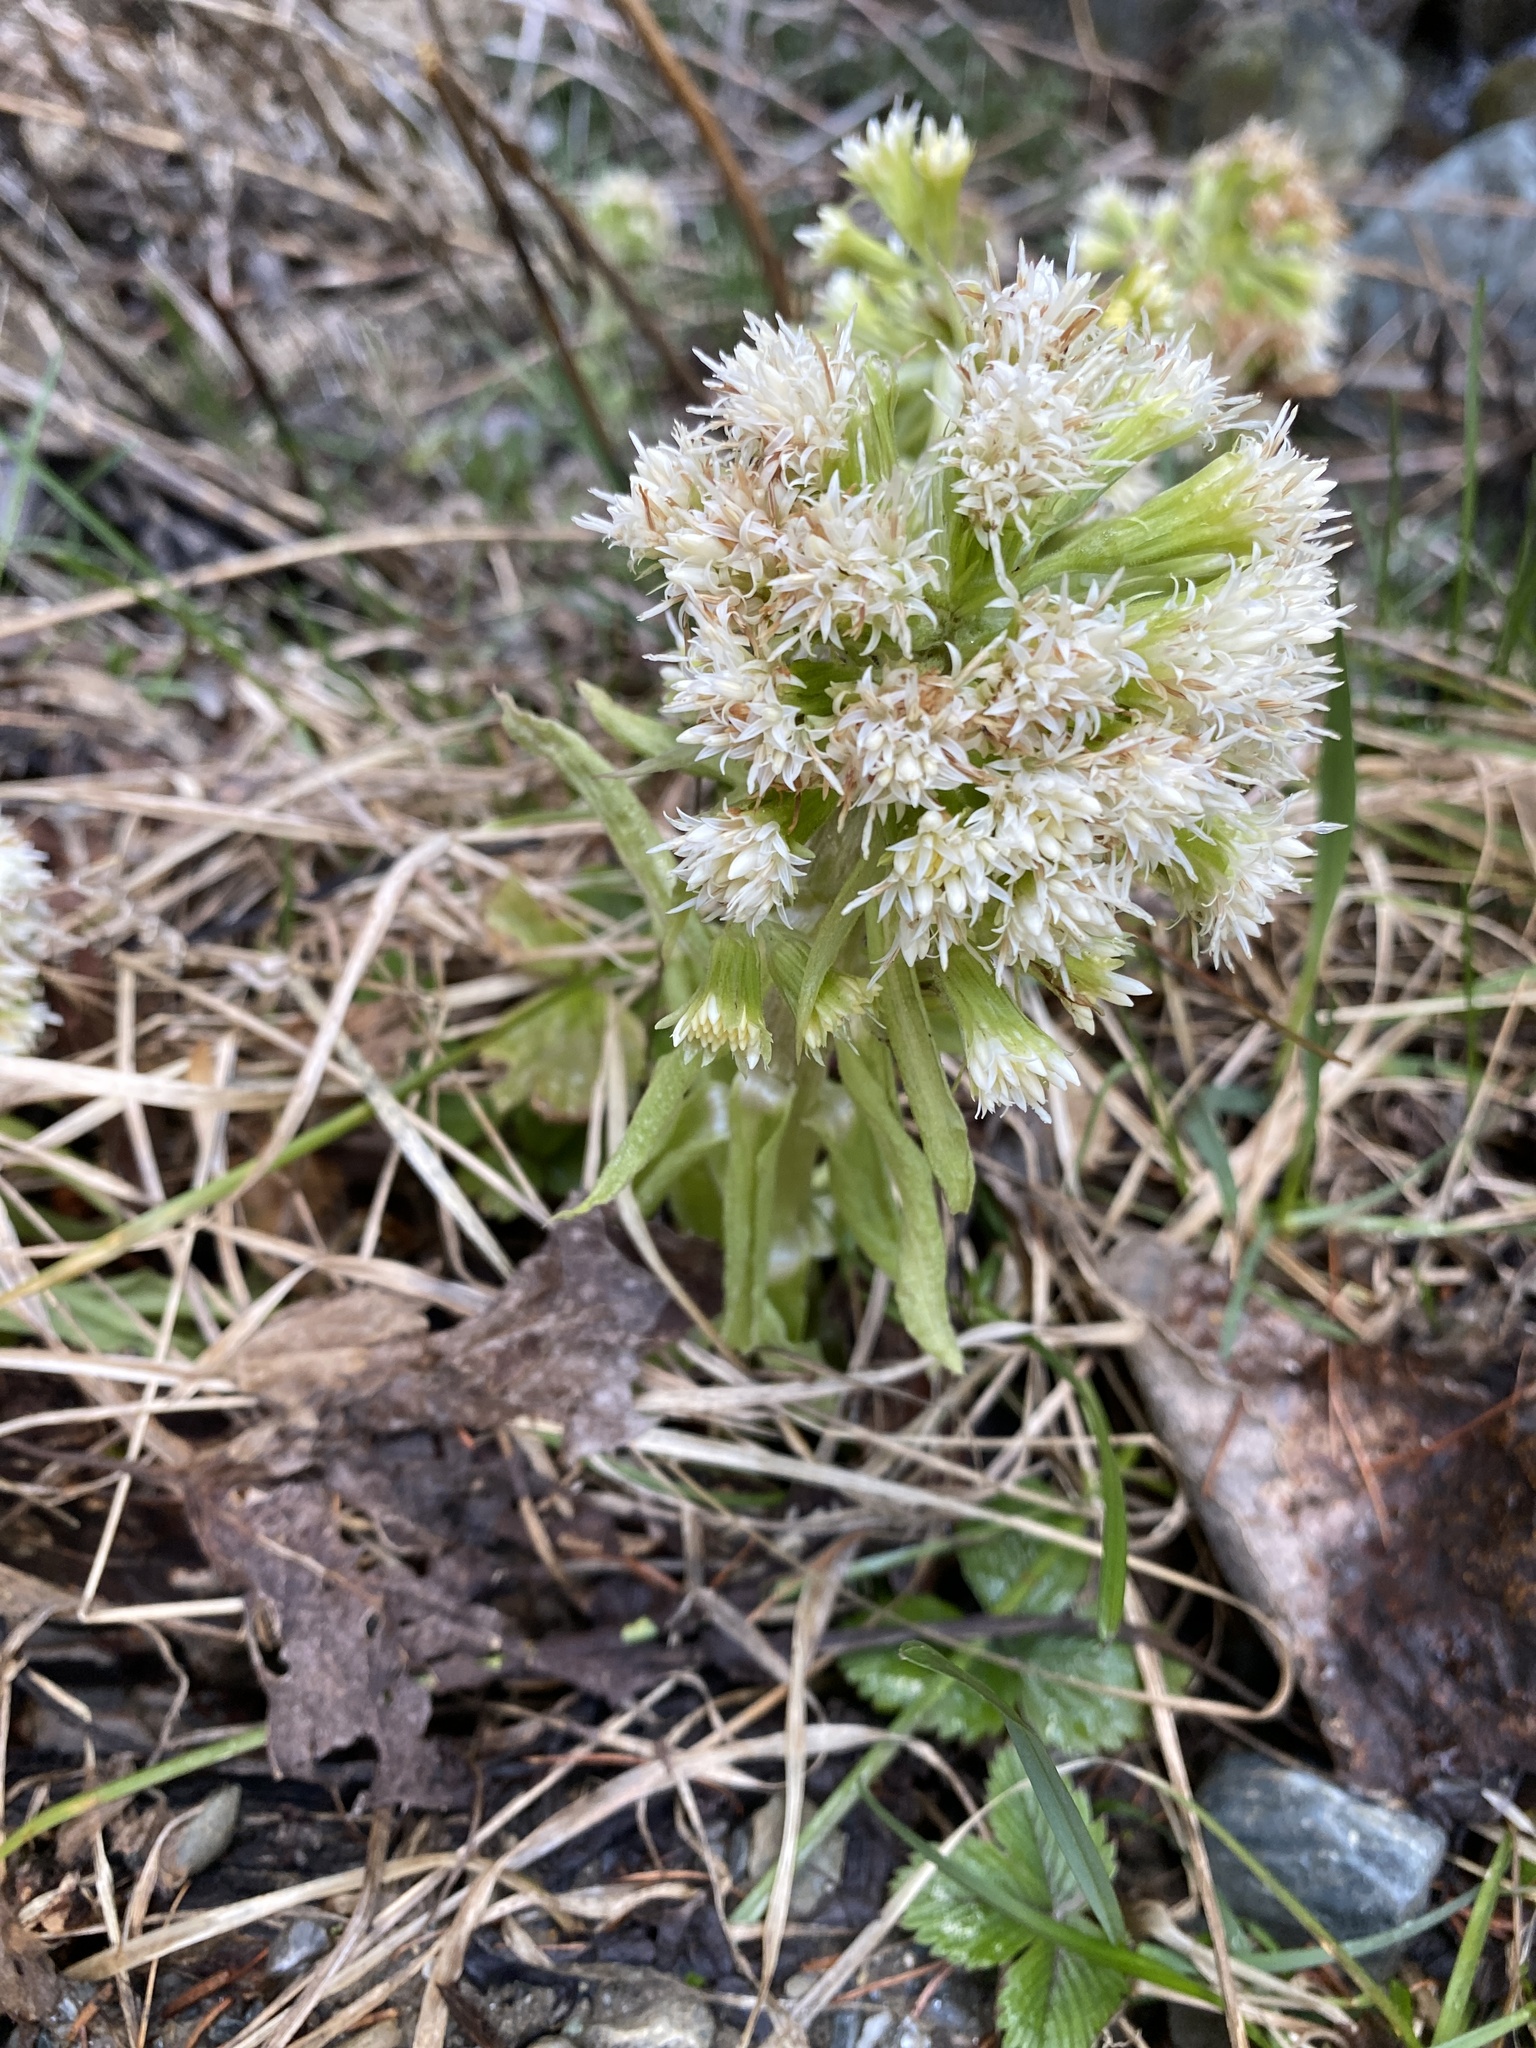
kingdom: Plantae
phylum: Tracheophyta
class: Magnoliopsida
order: Asterales
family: Asteraceae
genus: Petasites
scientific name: Petasites albus
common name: White butterbur
